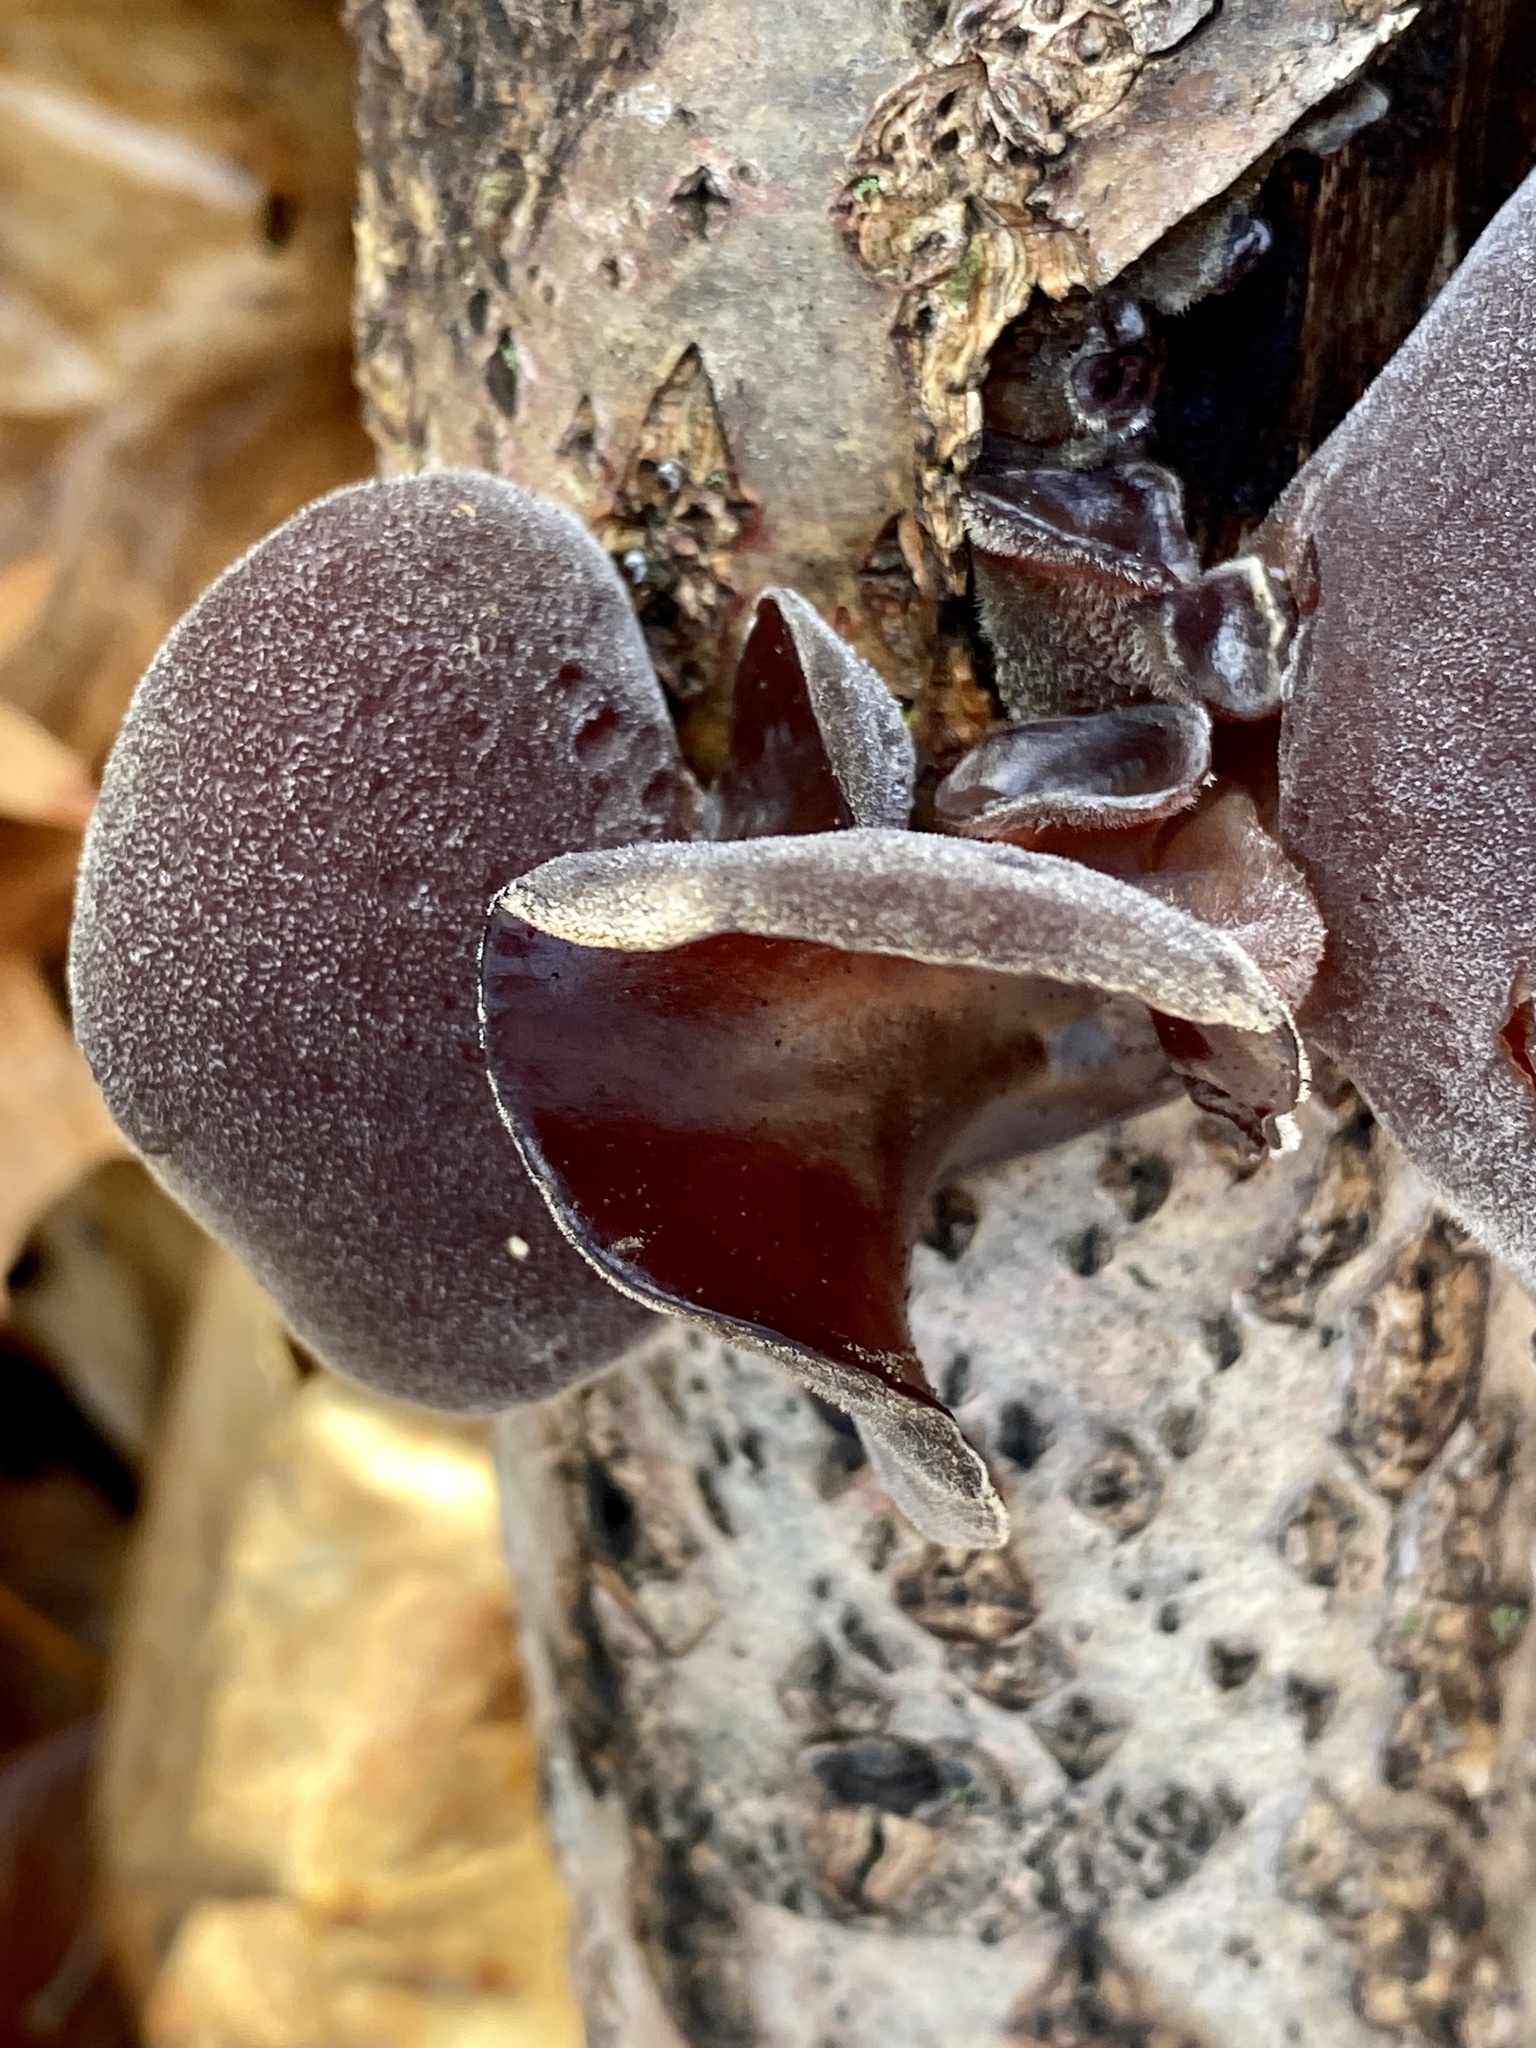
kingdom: Fungi
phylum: Basidiomycota
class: Agaricomycetes
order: Auriculariales
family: Auriculariaceae
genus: Auricularia
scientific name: Auricularia nigricans
